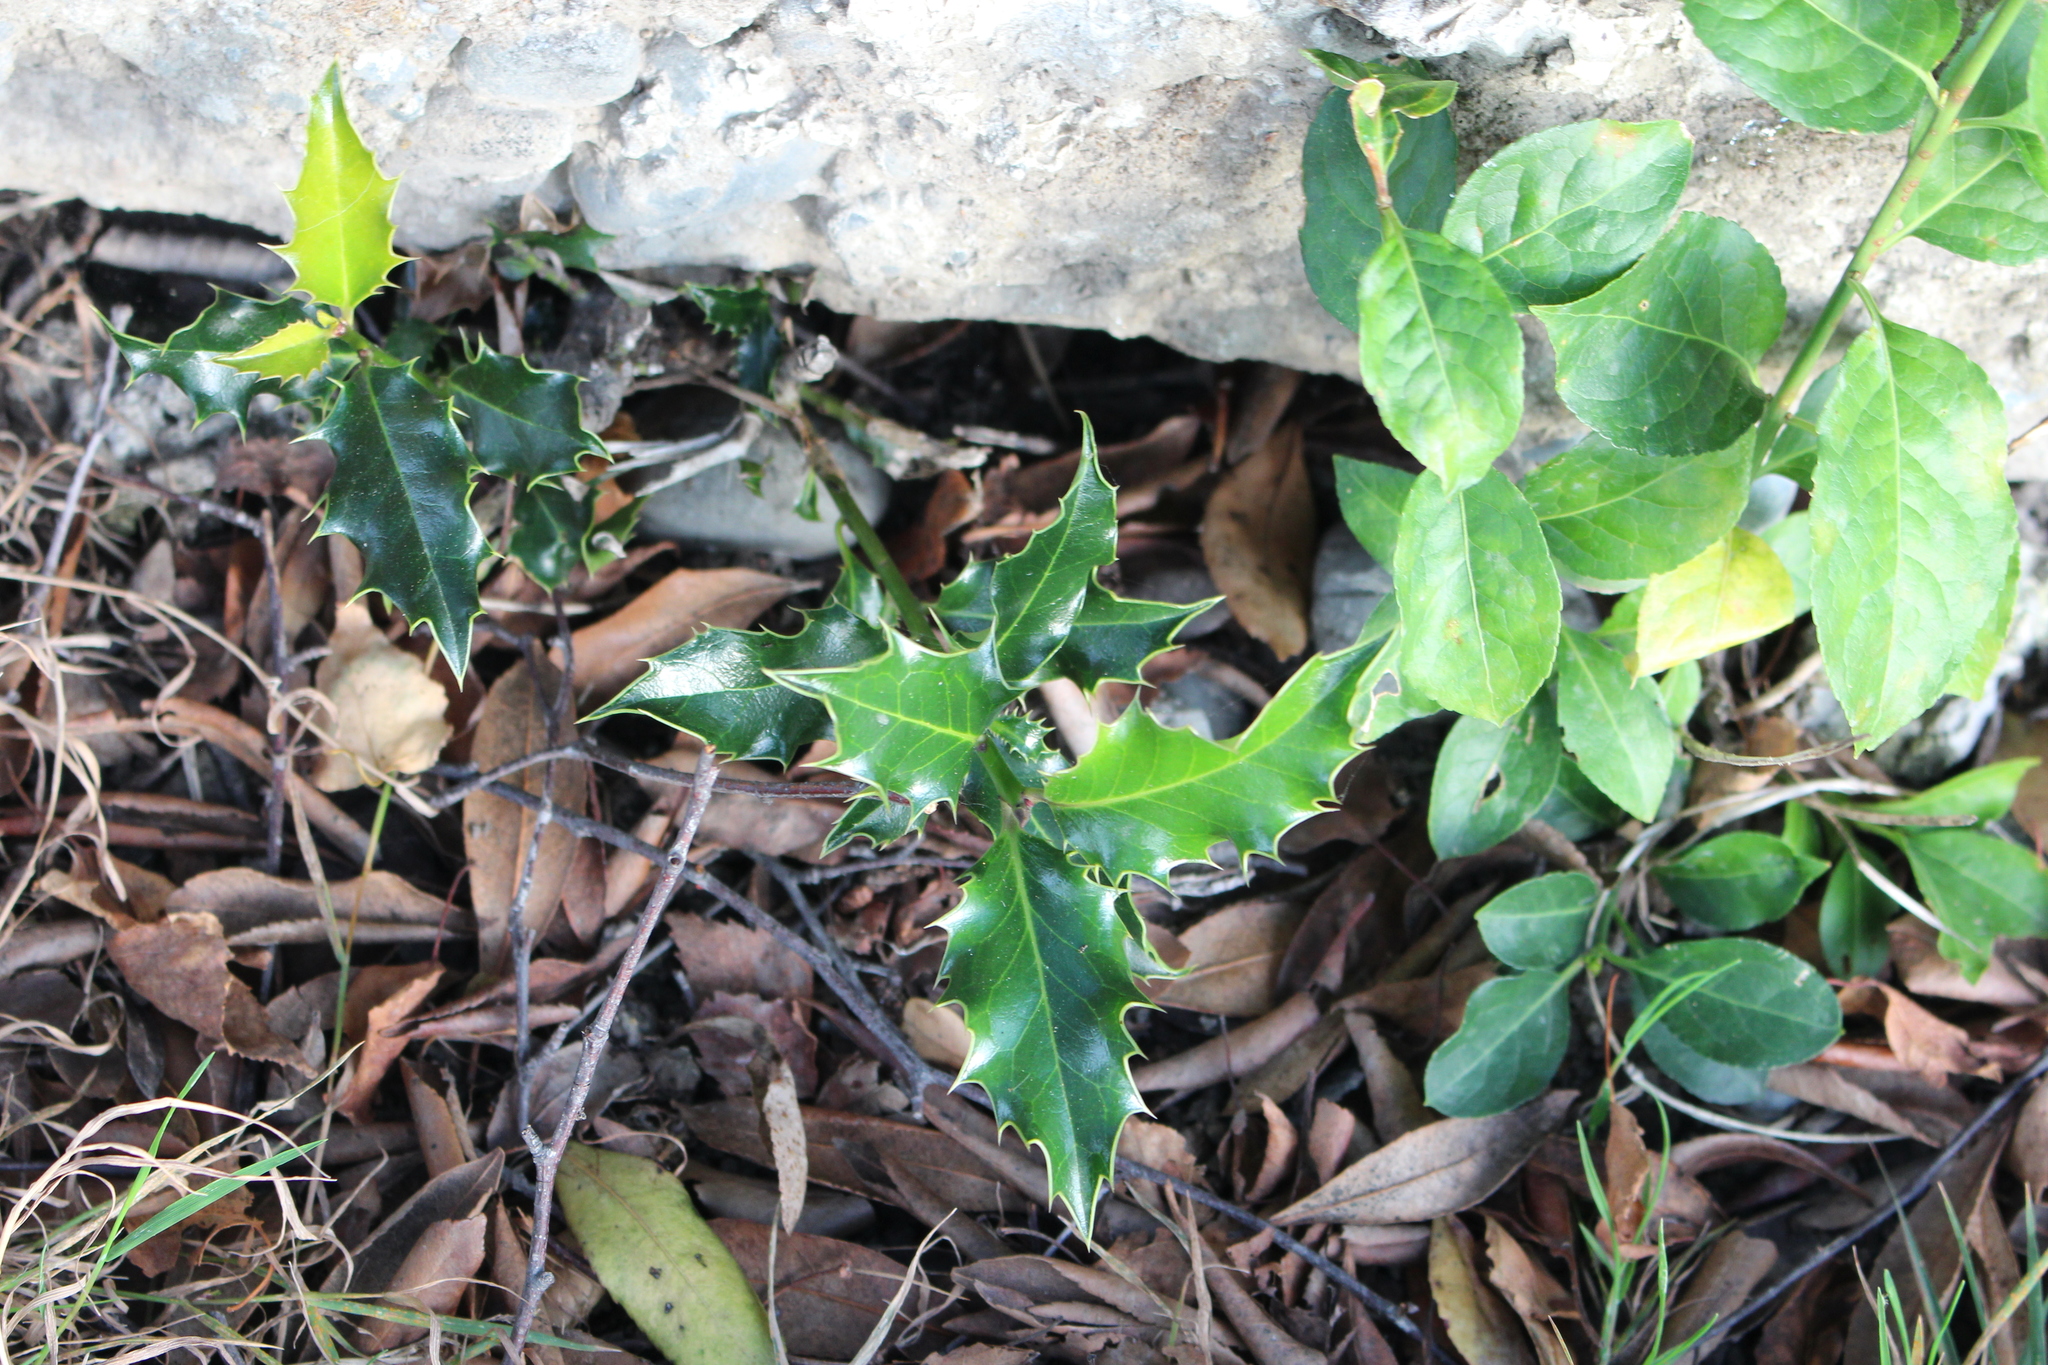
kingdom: Plantae
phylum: Tracheophyta
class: Magnoliopsida
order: Aquifoliales
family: Aquifoliaceae
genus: Ilex
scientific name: Ilex aquifolium
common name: English holly
